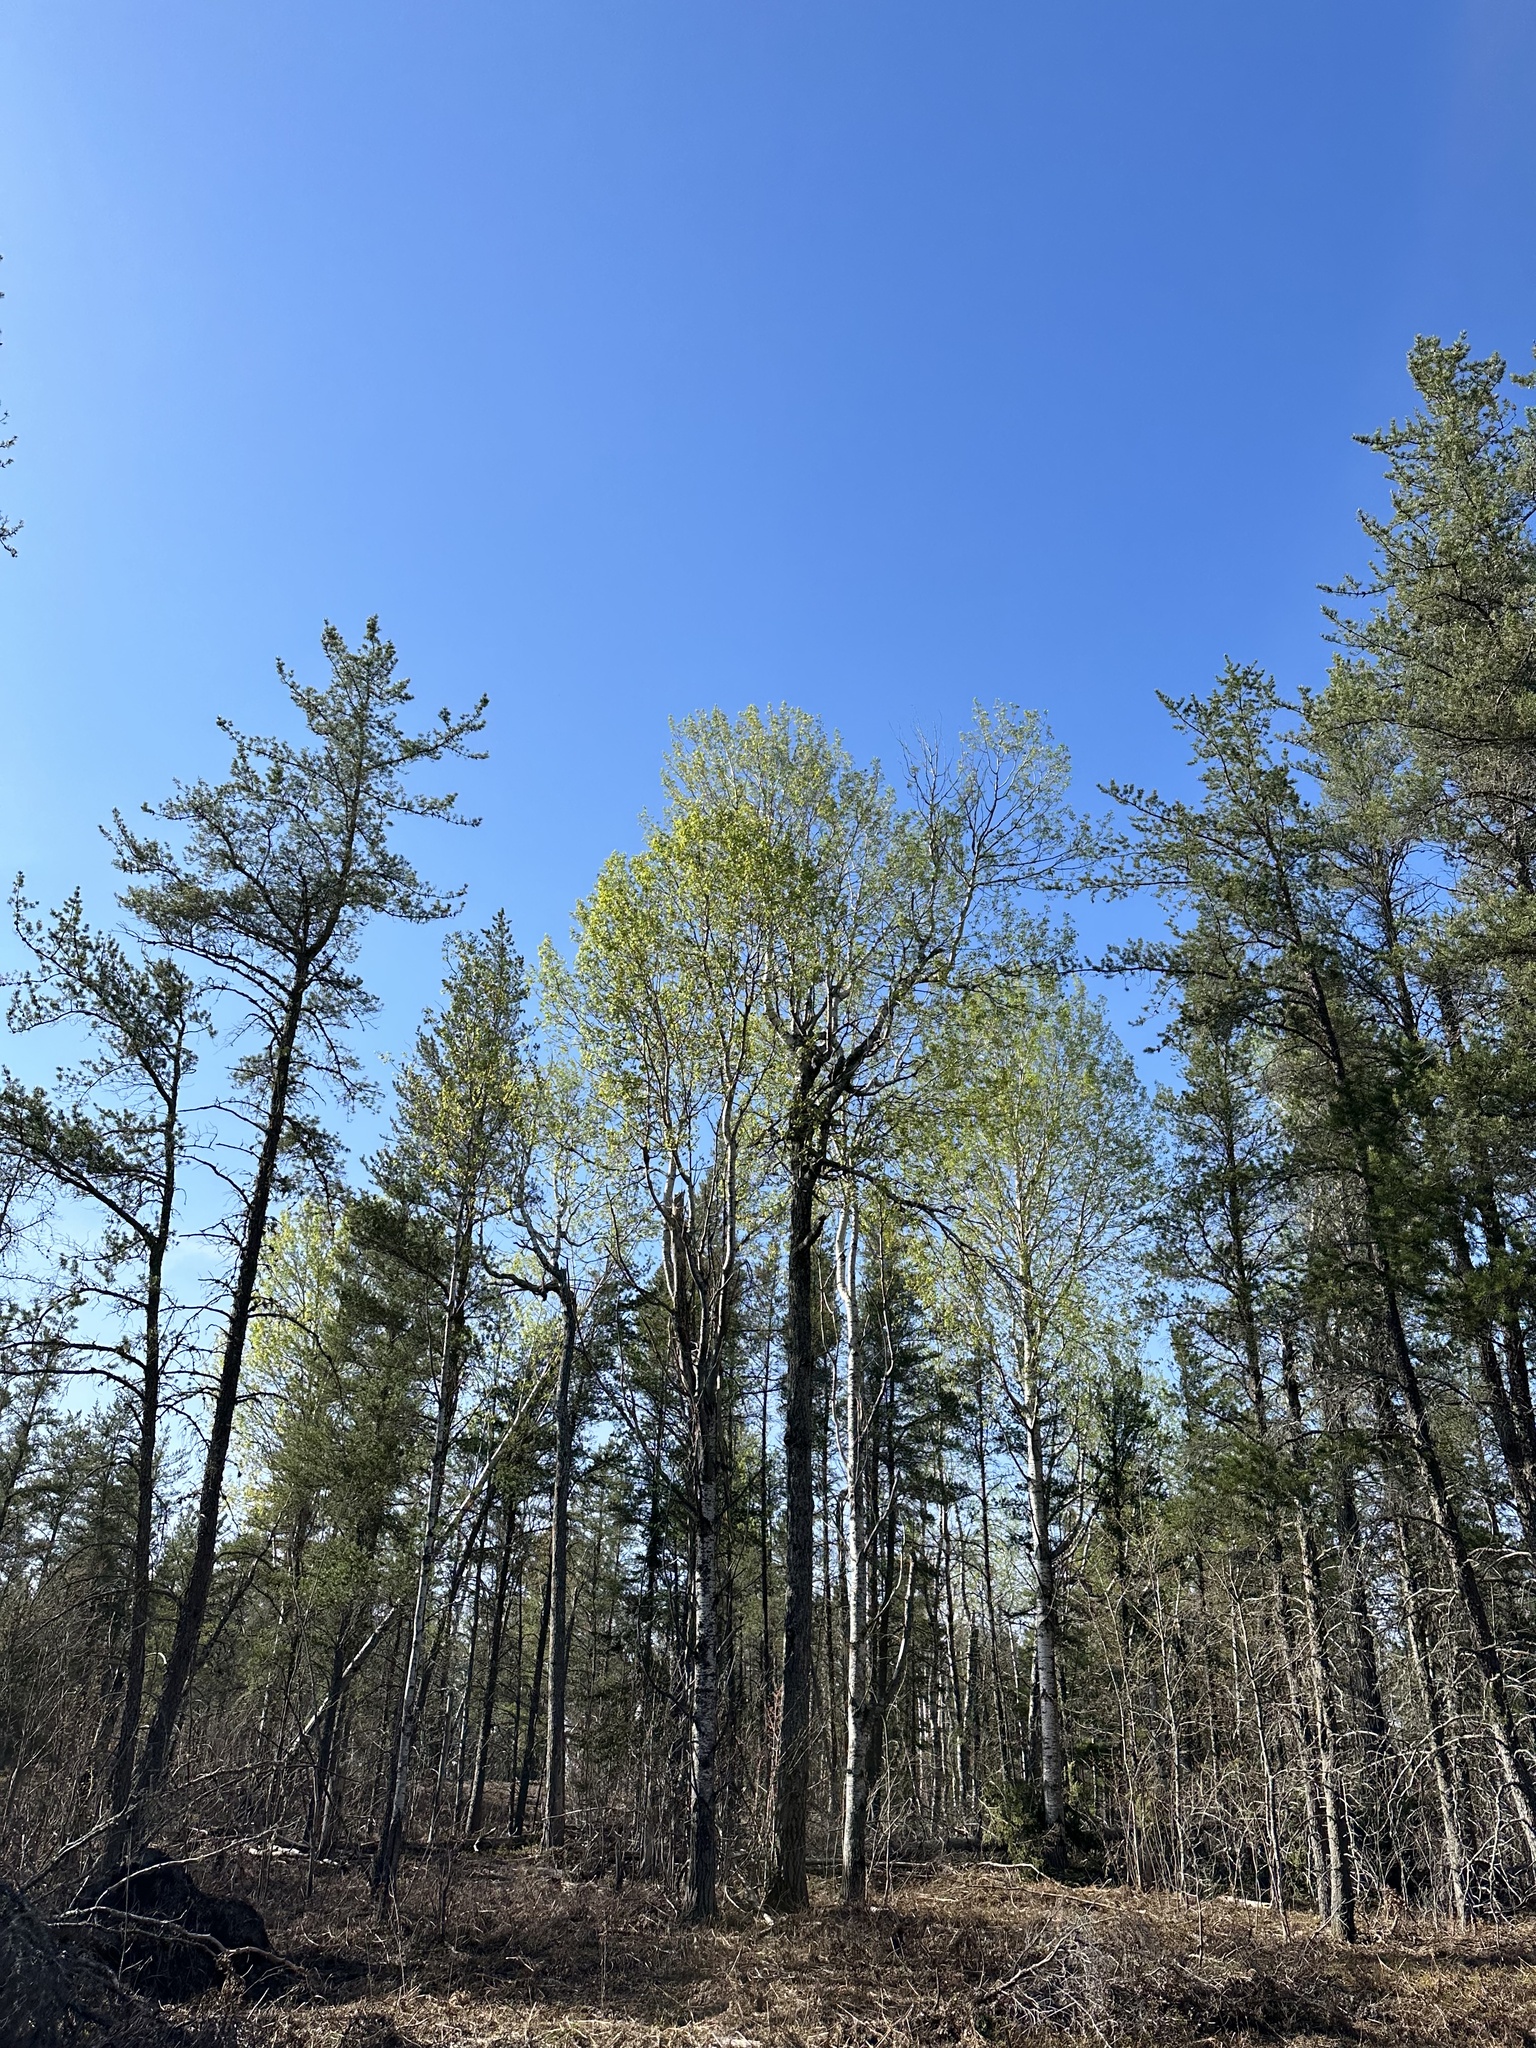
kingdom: Plantae
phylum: Tracheophyta
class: Magnoliopsida
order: Malpighiales
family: Salicaceae
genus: Populus
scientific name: Populus tremuloides
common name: Quaking aspen
